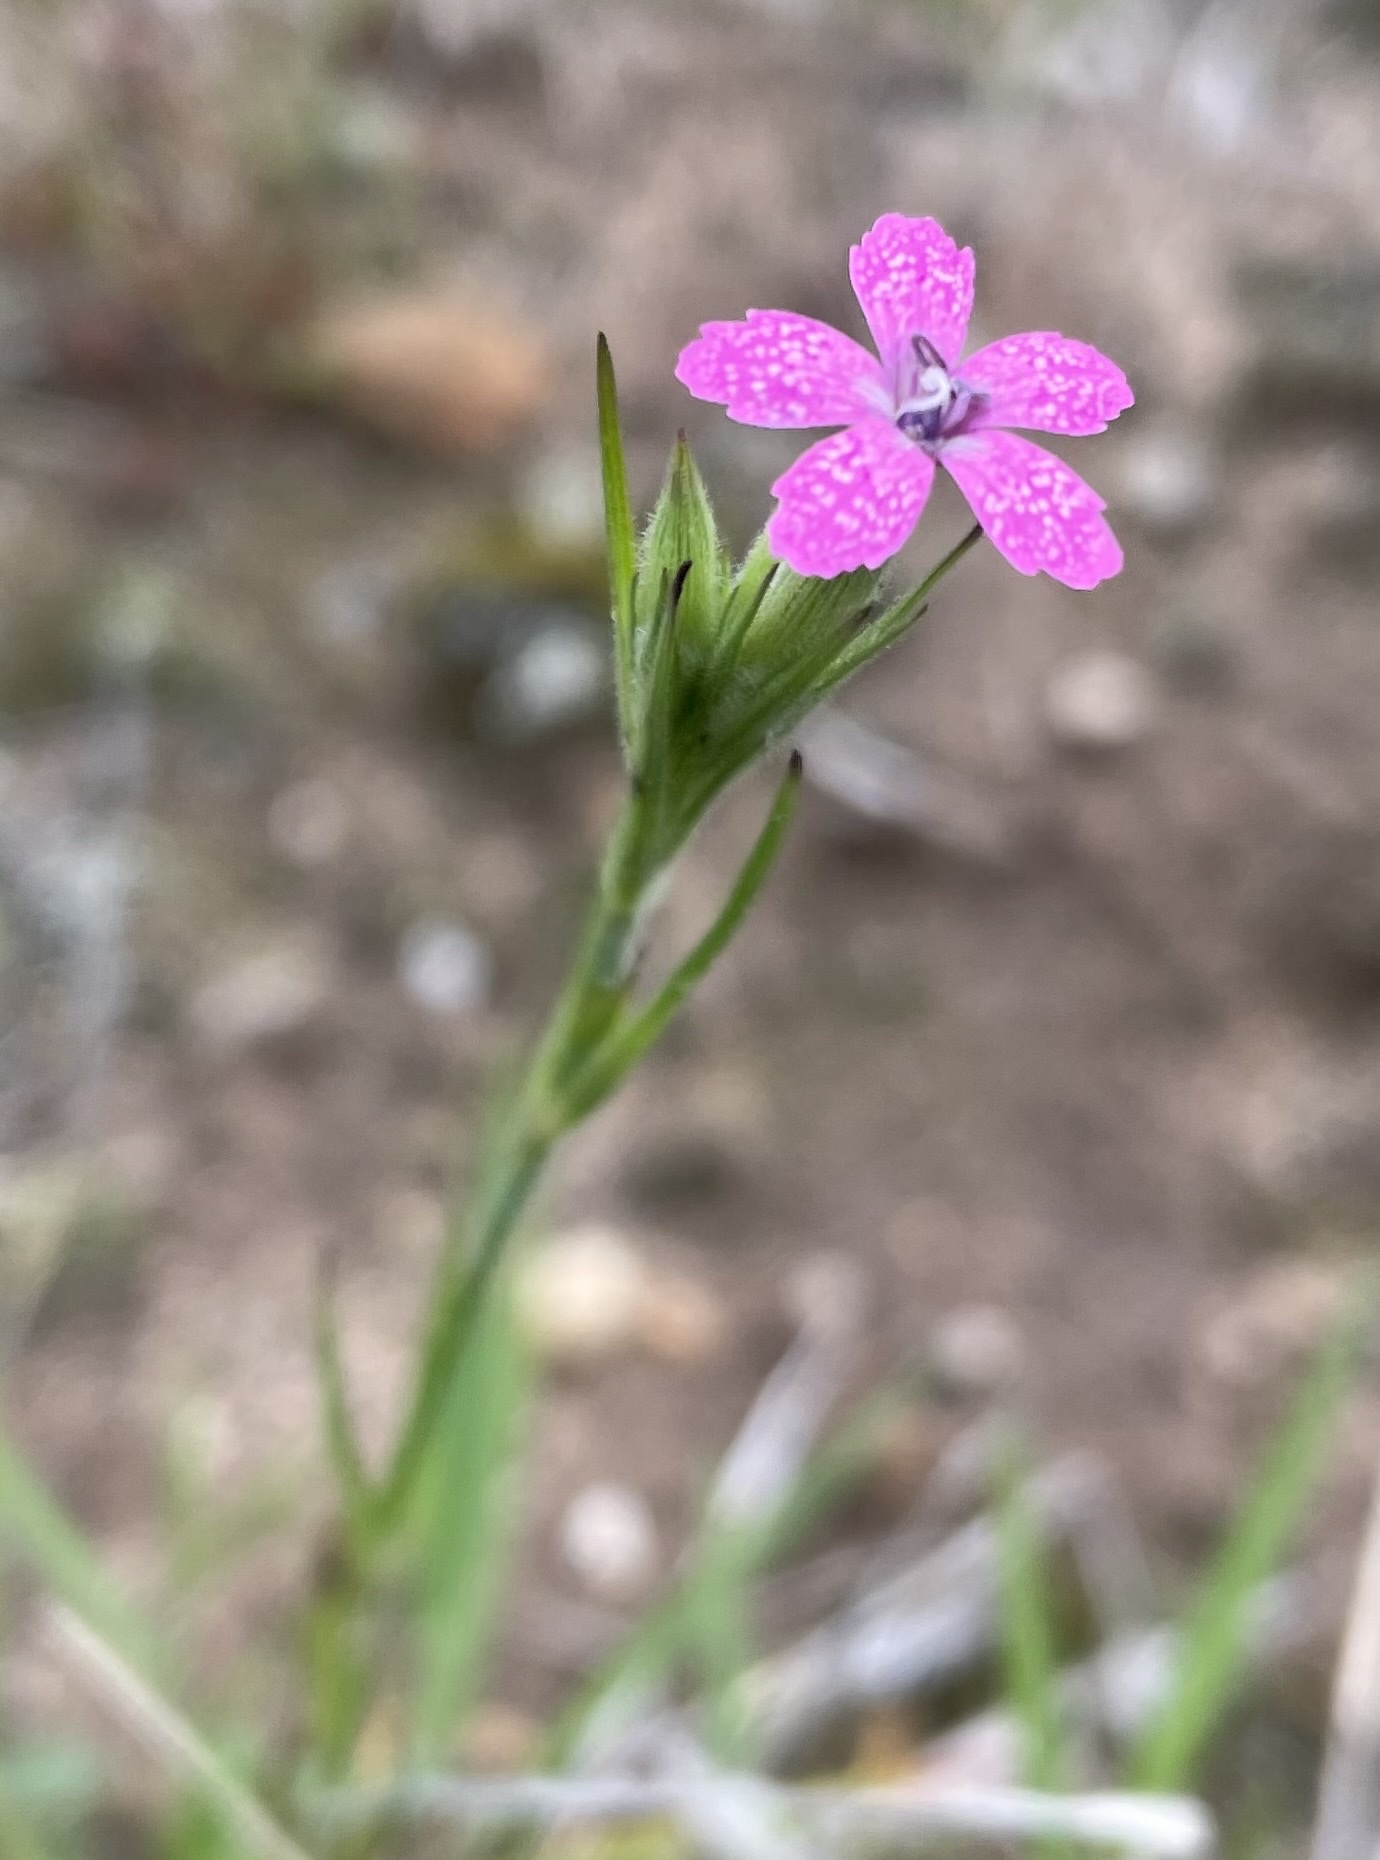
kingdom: Plantae
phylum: Tracheophyta
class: Magnoliopsida
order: Caryophyllales
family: Caryophyllaceae
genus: Dianthus
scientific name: Dianthus armeria
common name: Deptford pink
